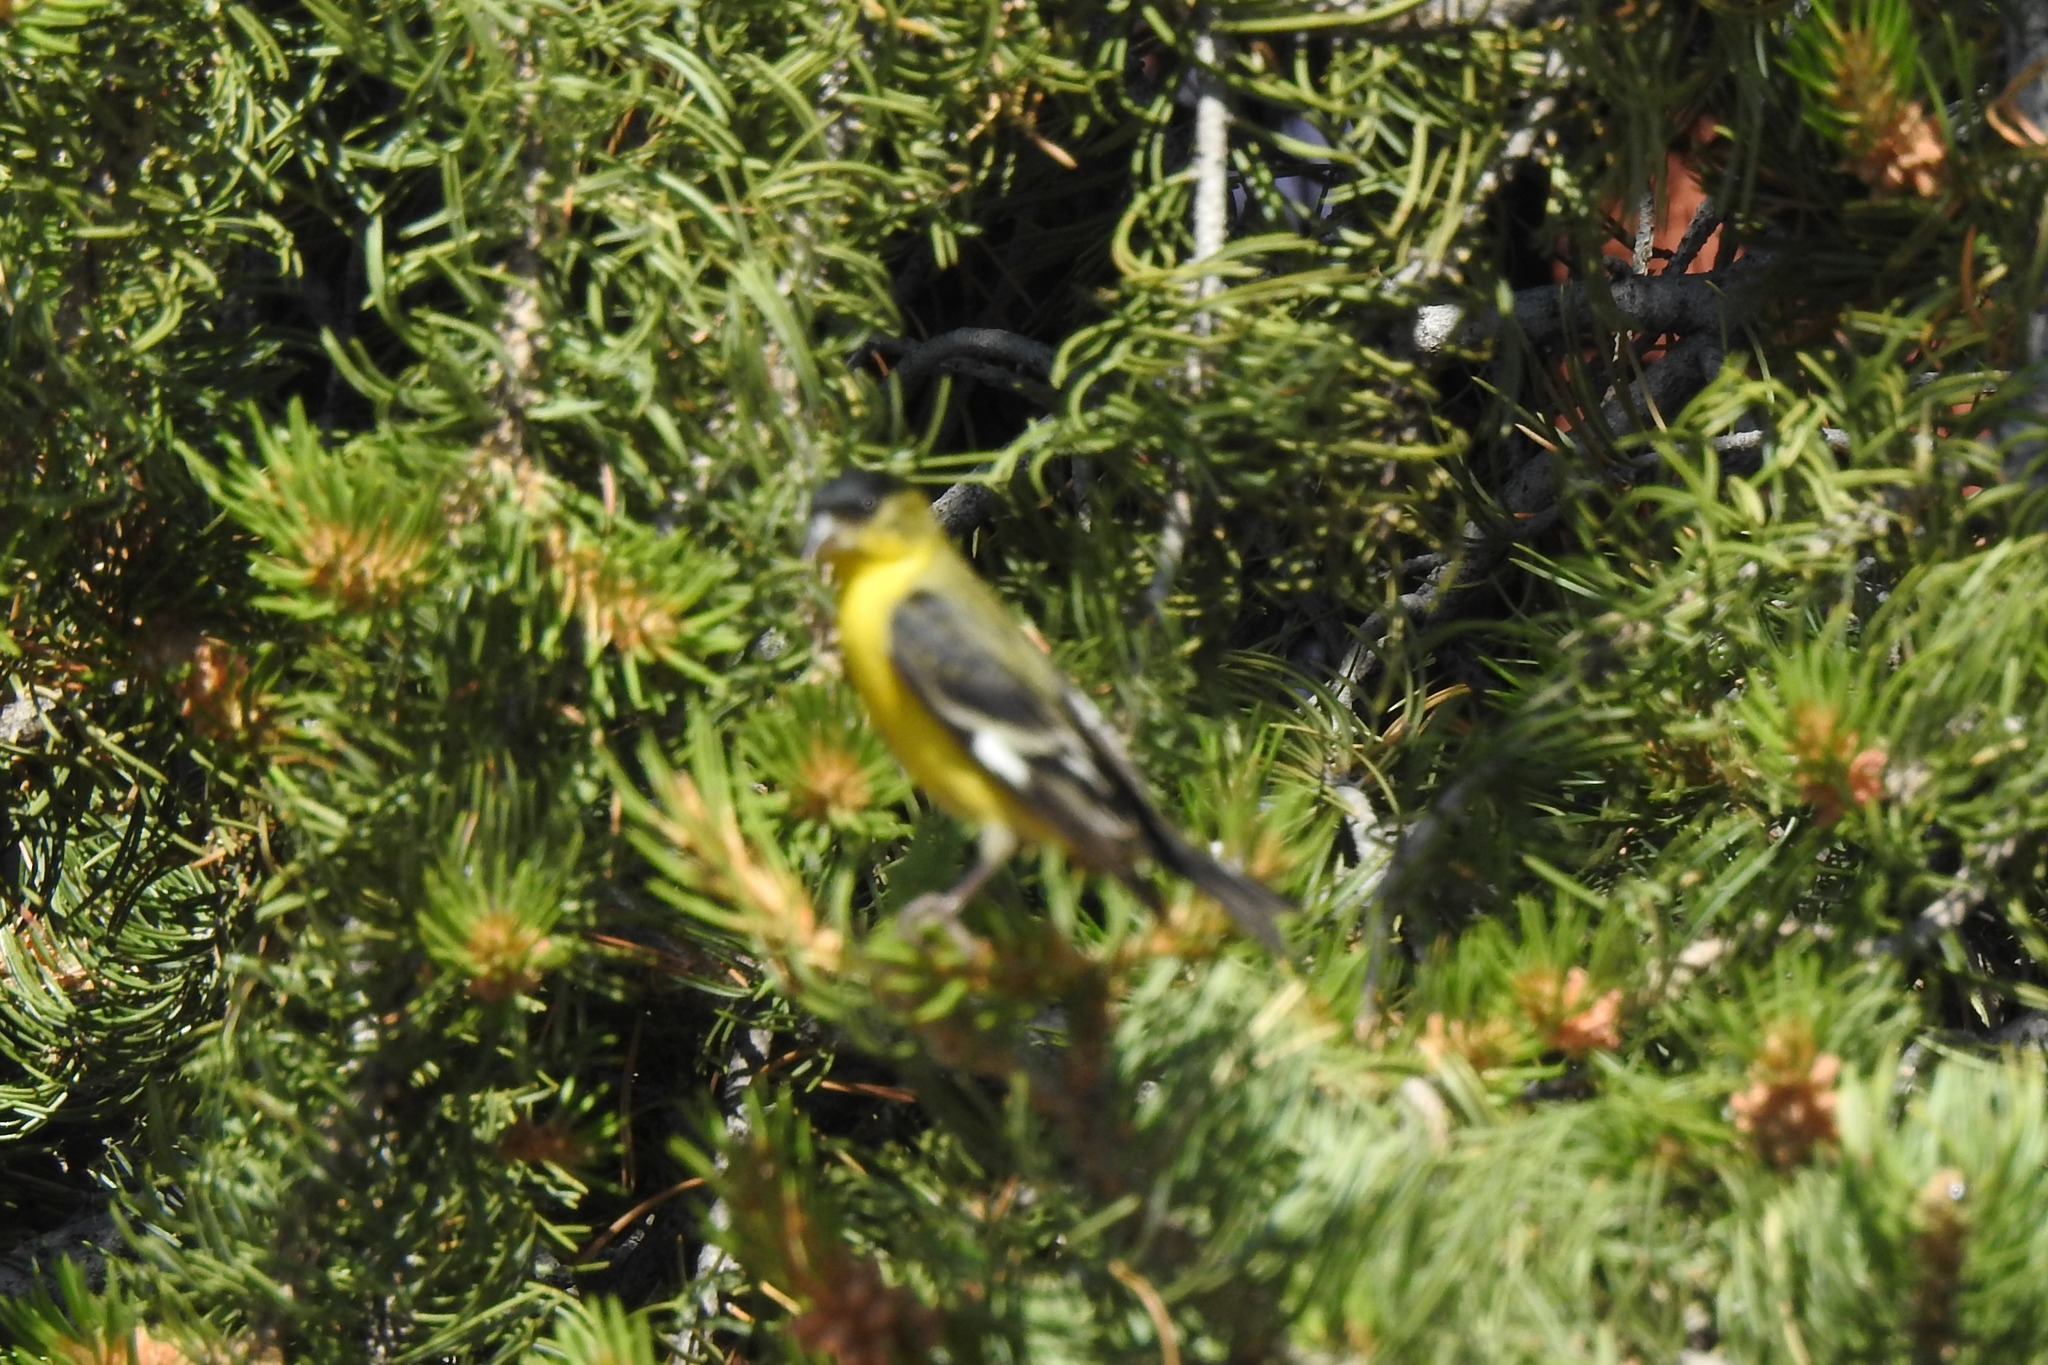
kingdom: Animalia
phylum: Chordata
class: Aves
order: Passeriformes
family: Fringillidae
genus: Spinus
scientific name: Spinus psaltria
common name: Lesser goldfinch
